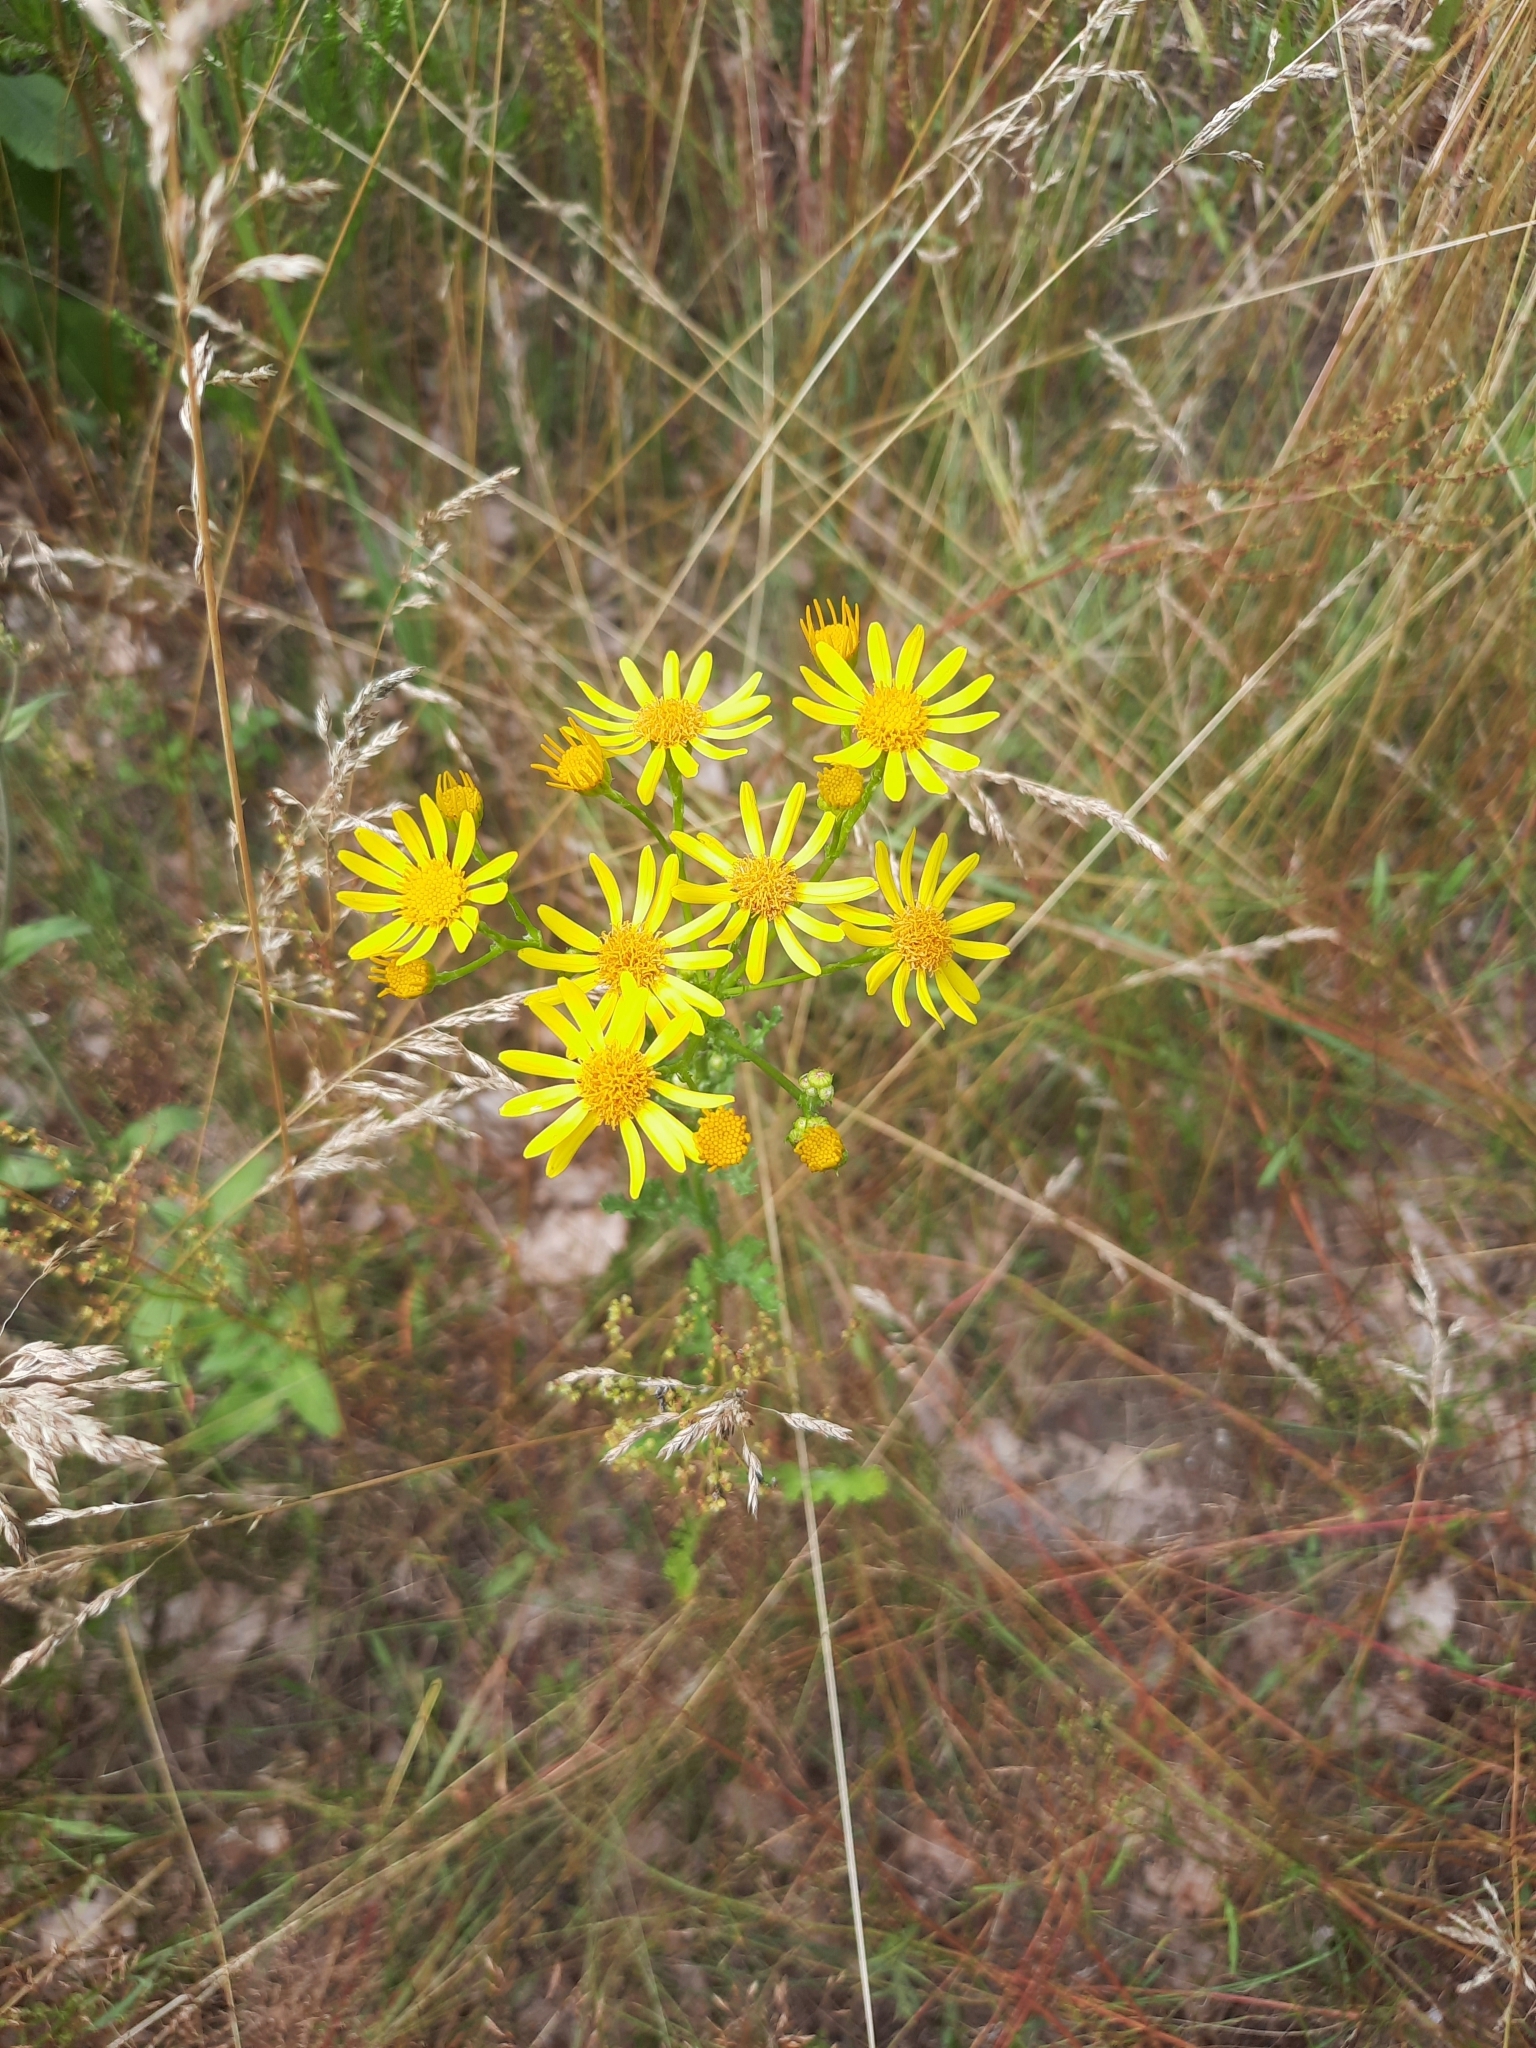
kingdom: Plantae
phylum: Tracheophyta
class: Magnoliopsida
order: Asterales
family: Asteraceae
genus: Jacobaea
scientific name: Jacobaea vulgaris
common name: Stinking willie
